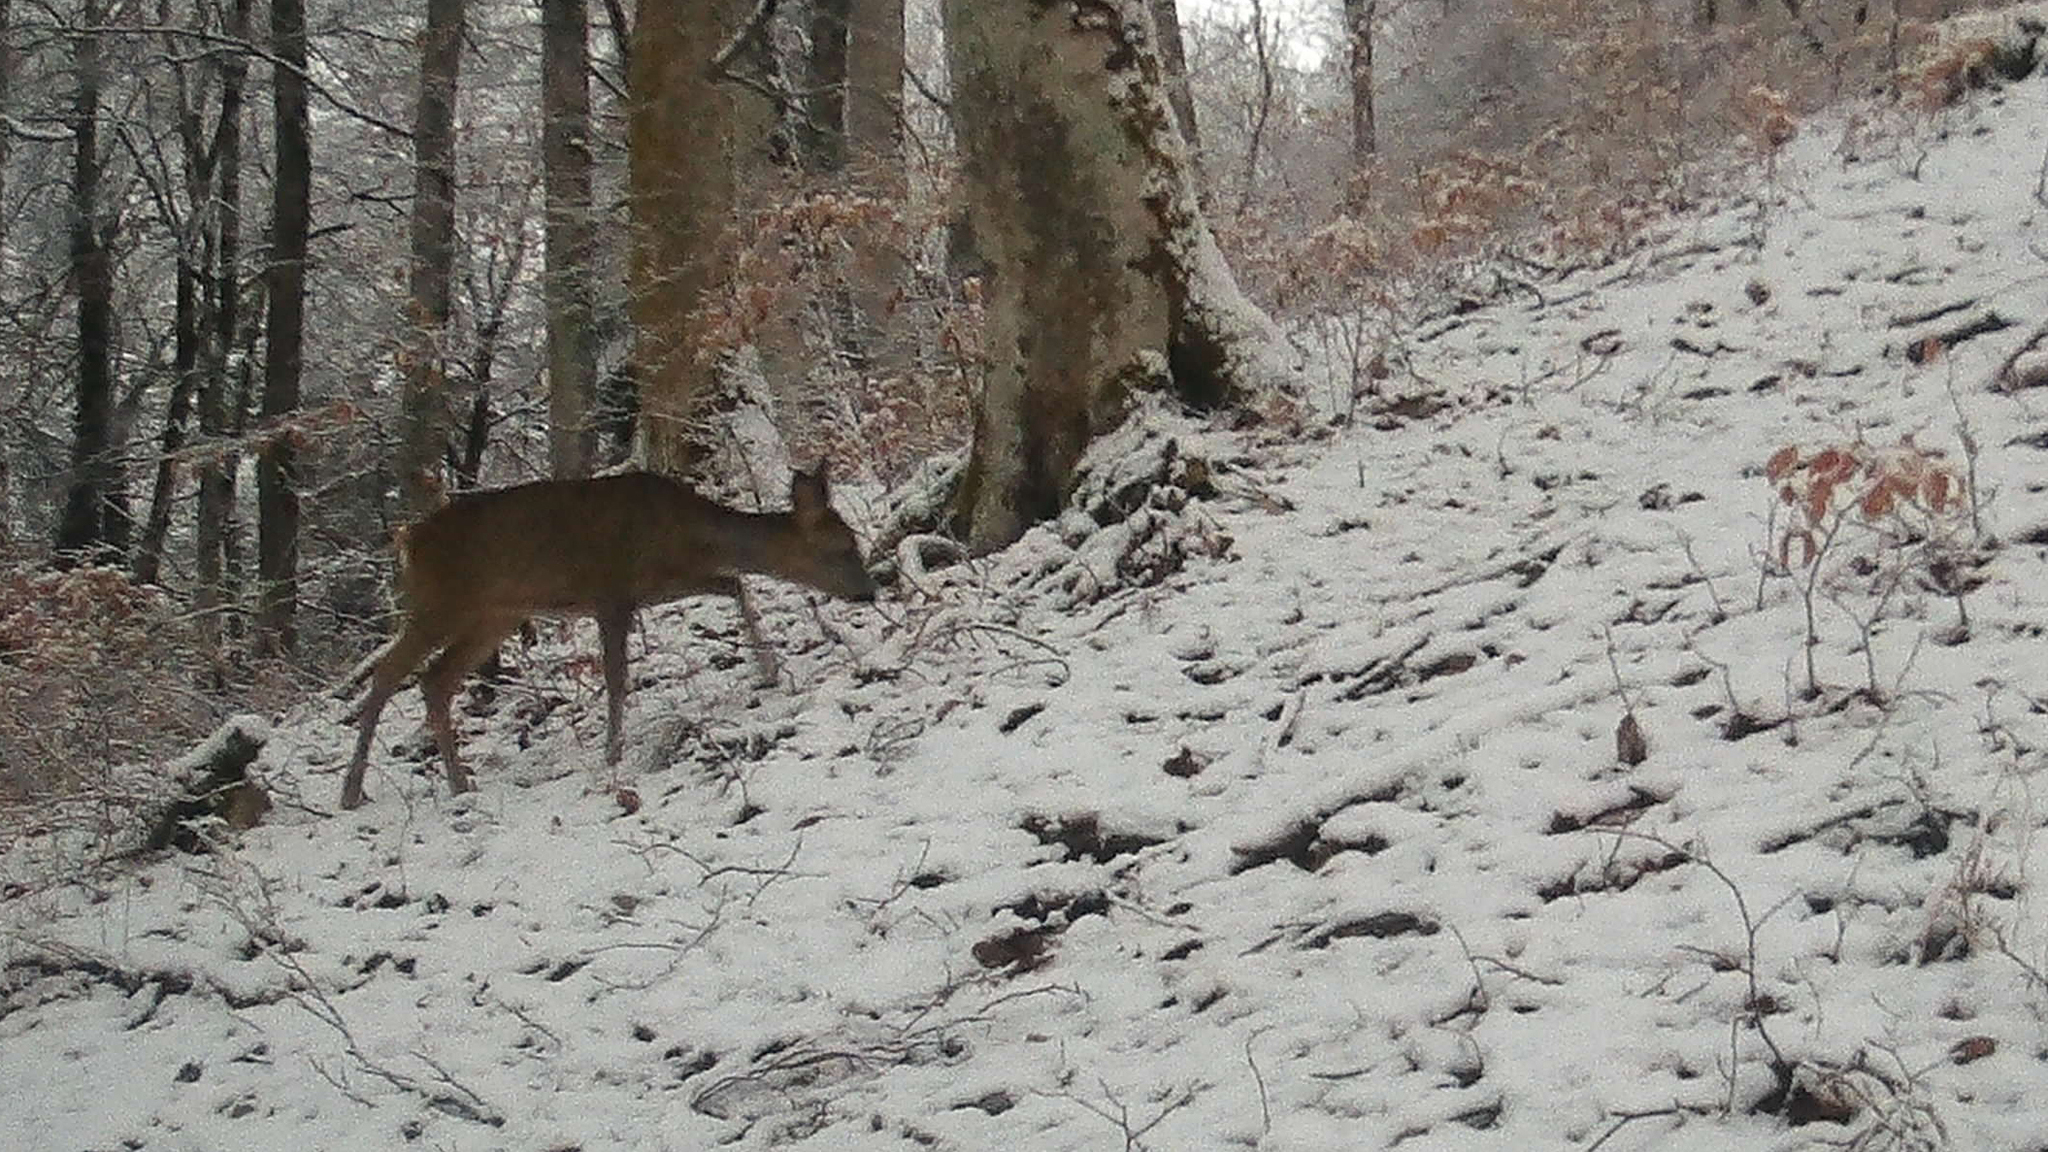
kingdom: Animalia
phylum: Chordata
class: Mammalia
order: Artiodactyla
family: Cervidae
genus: Capreolus
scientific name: Capreolus capreolus
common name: Western roe deer
